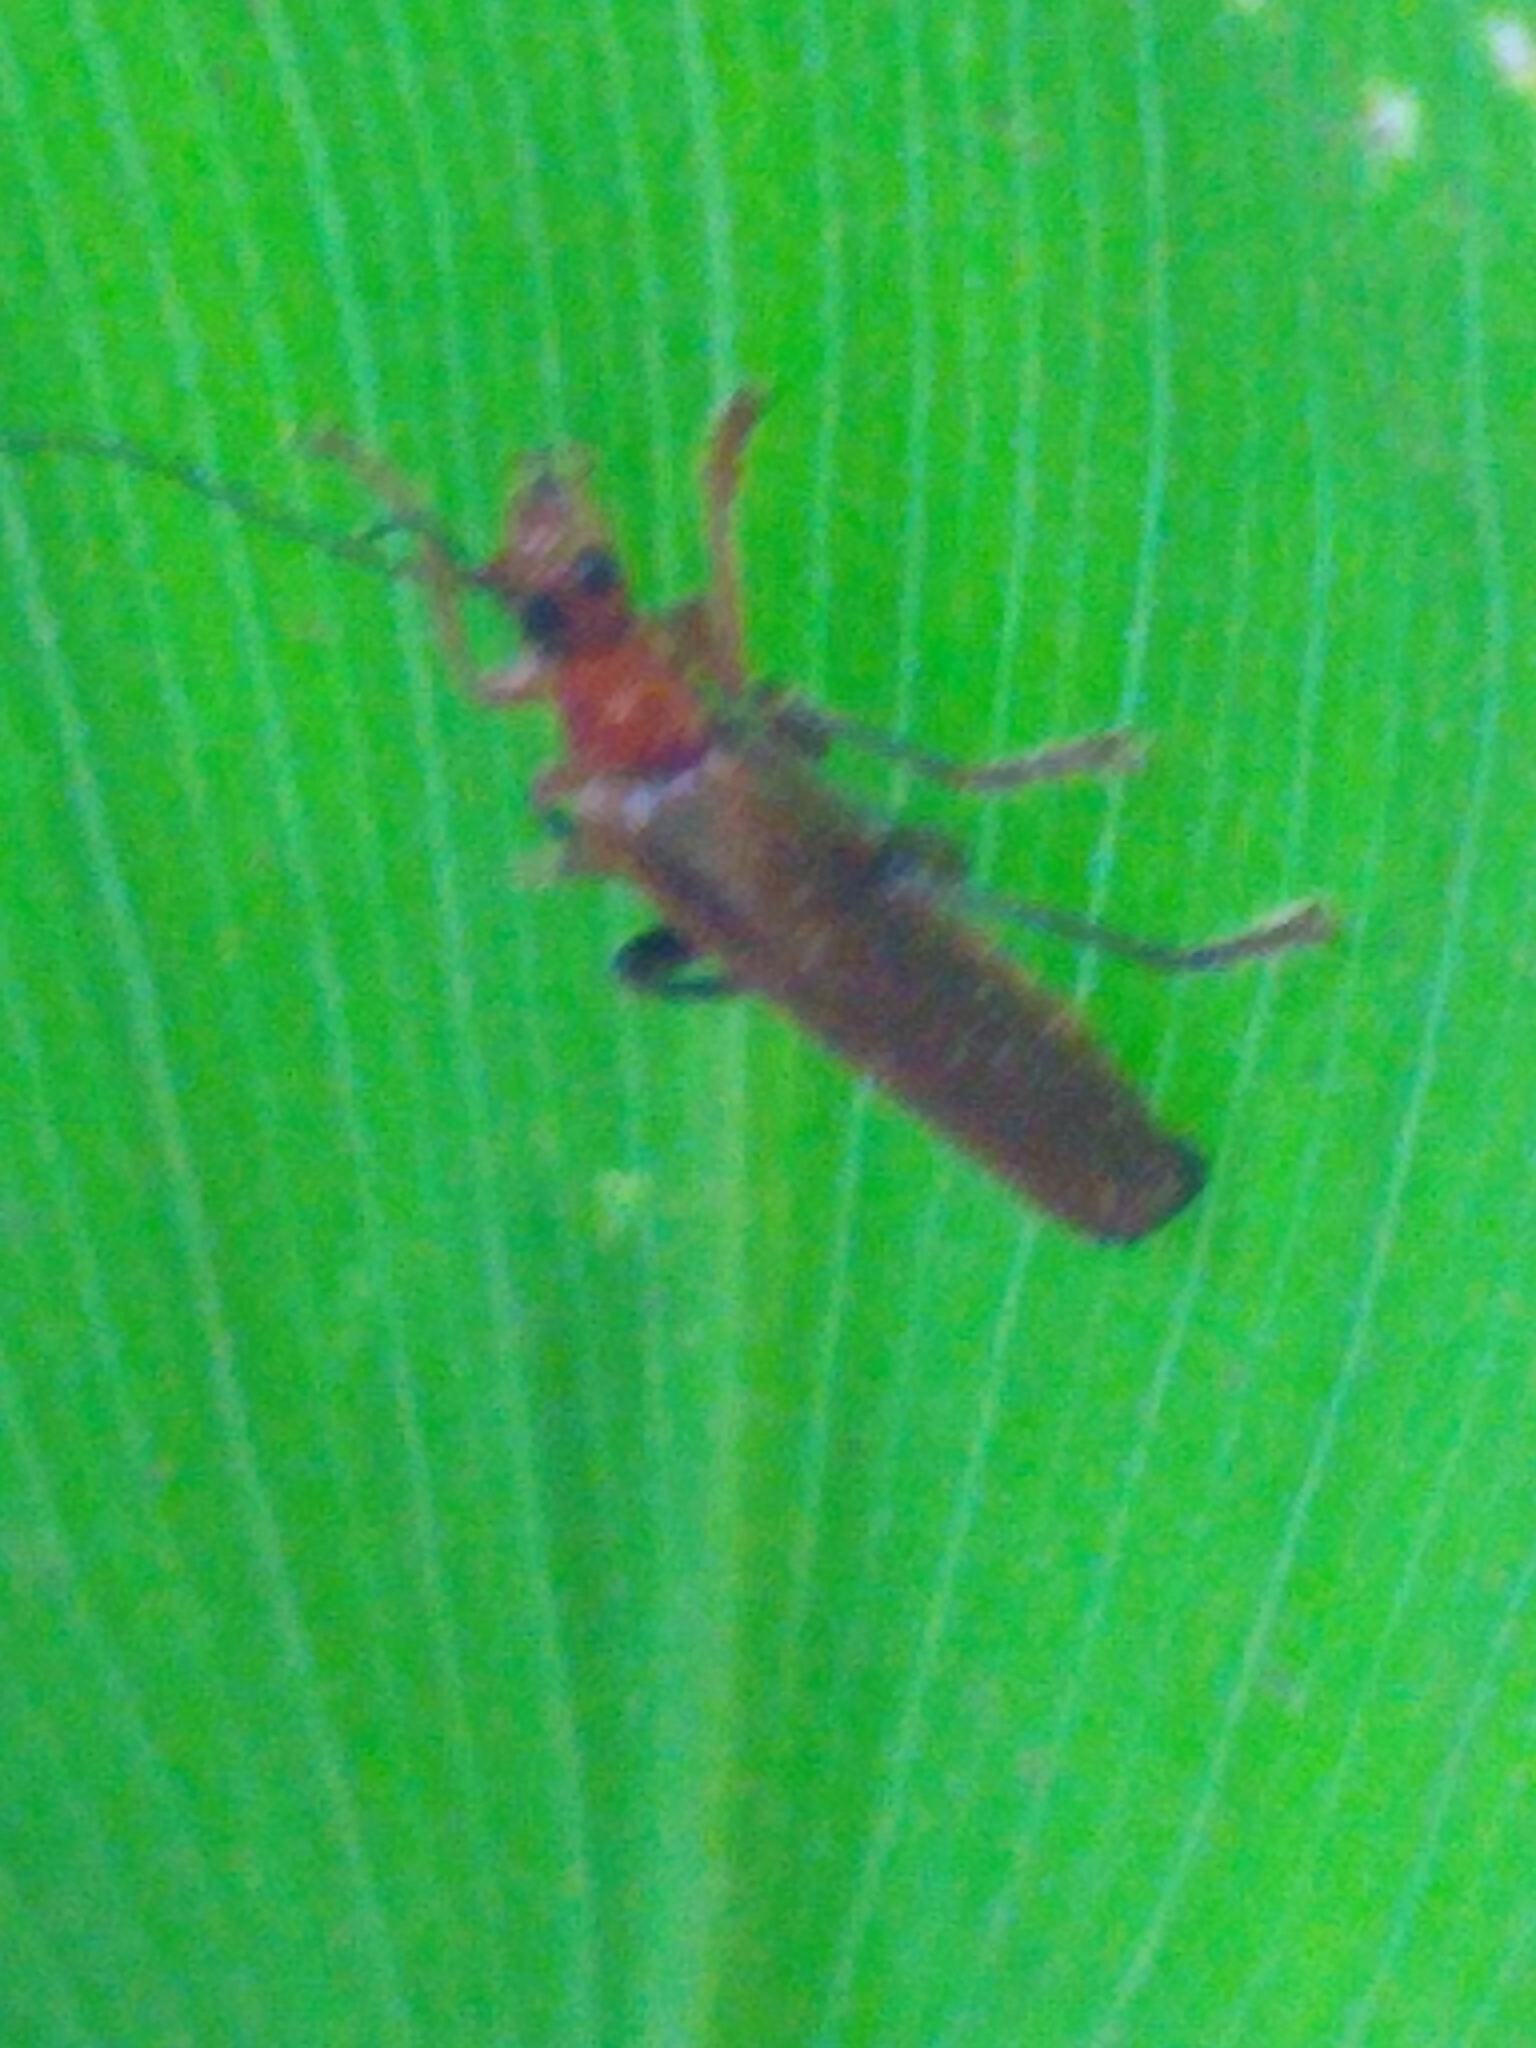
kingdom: Animalia
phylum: Arthropoda
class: Insecta
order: Coleoptera
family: Cantharidae
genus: Cantharis
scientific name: Cantharis livida
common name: Livid soldier beetle
